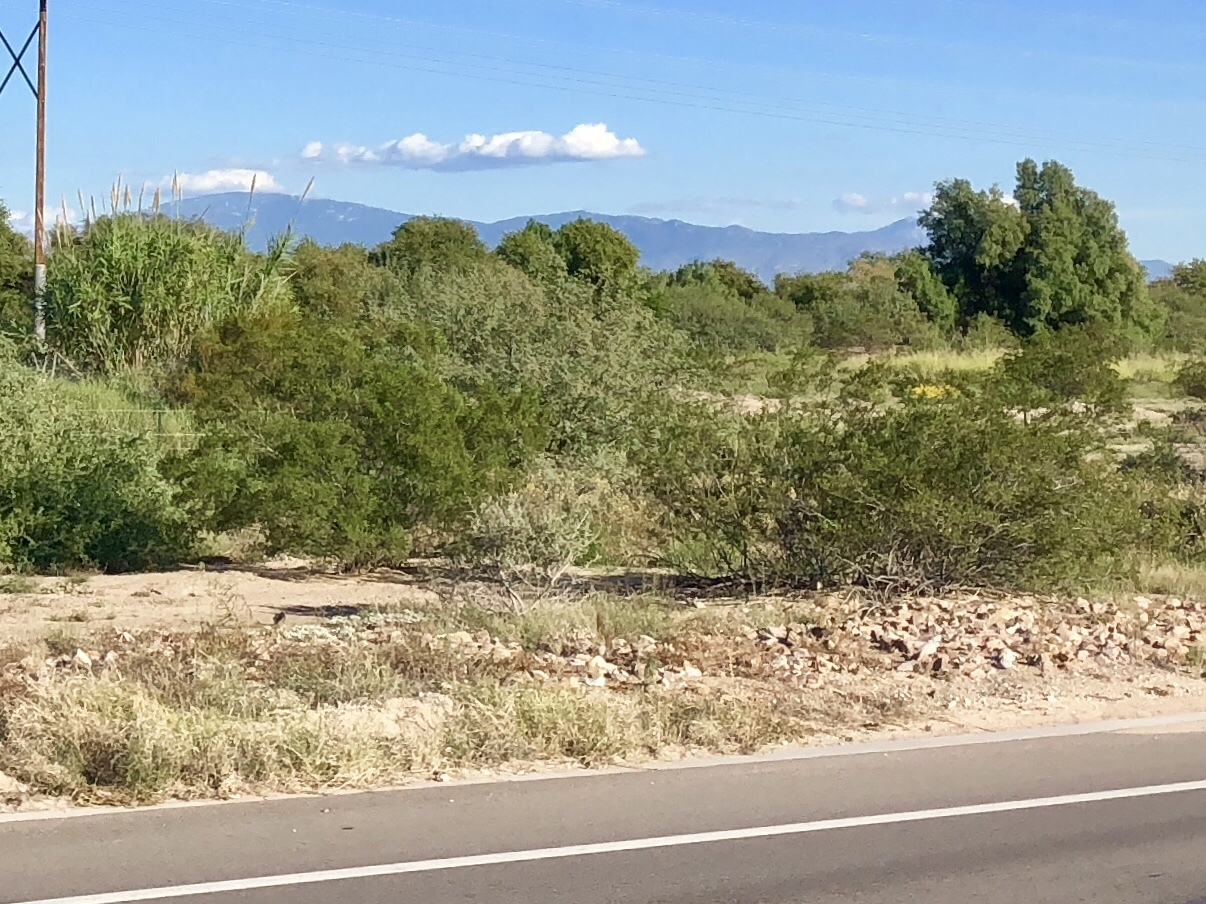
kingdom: Plantae
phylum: Tracheophyta
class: Magnoliopsida
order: Zygophyllales
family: Zygophyllaceae
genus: Larrea
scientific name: Larrea tridentata
